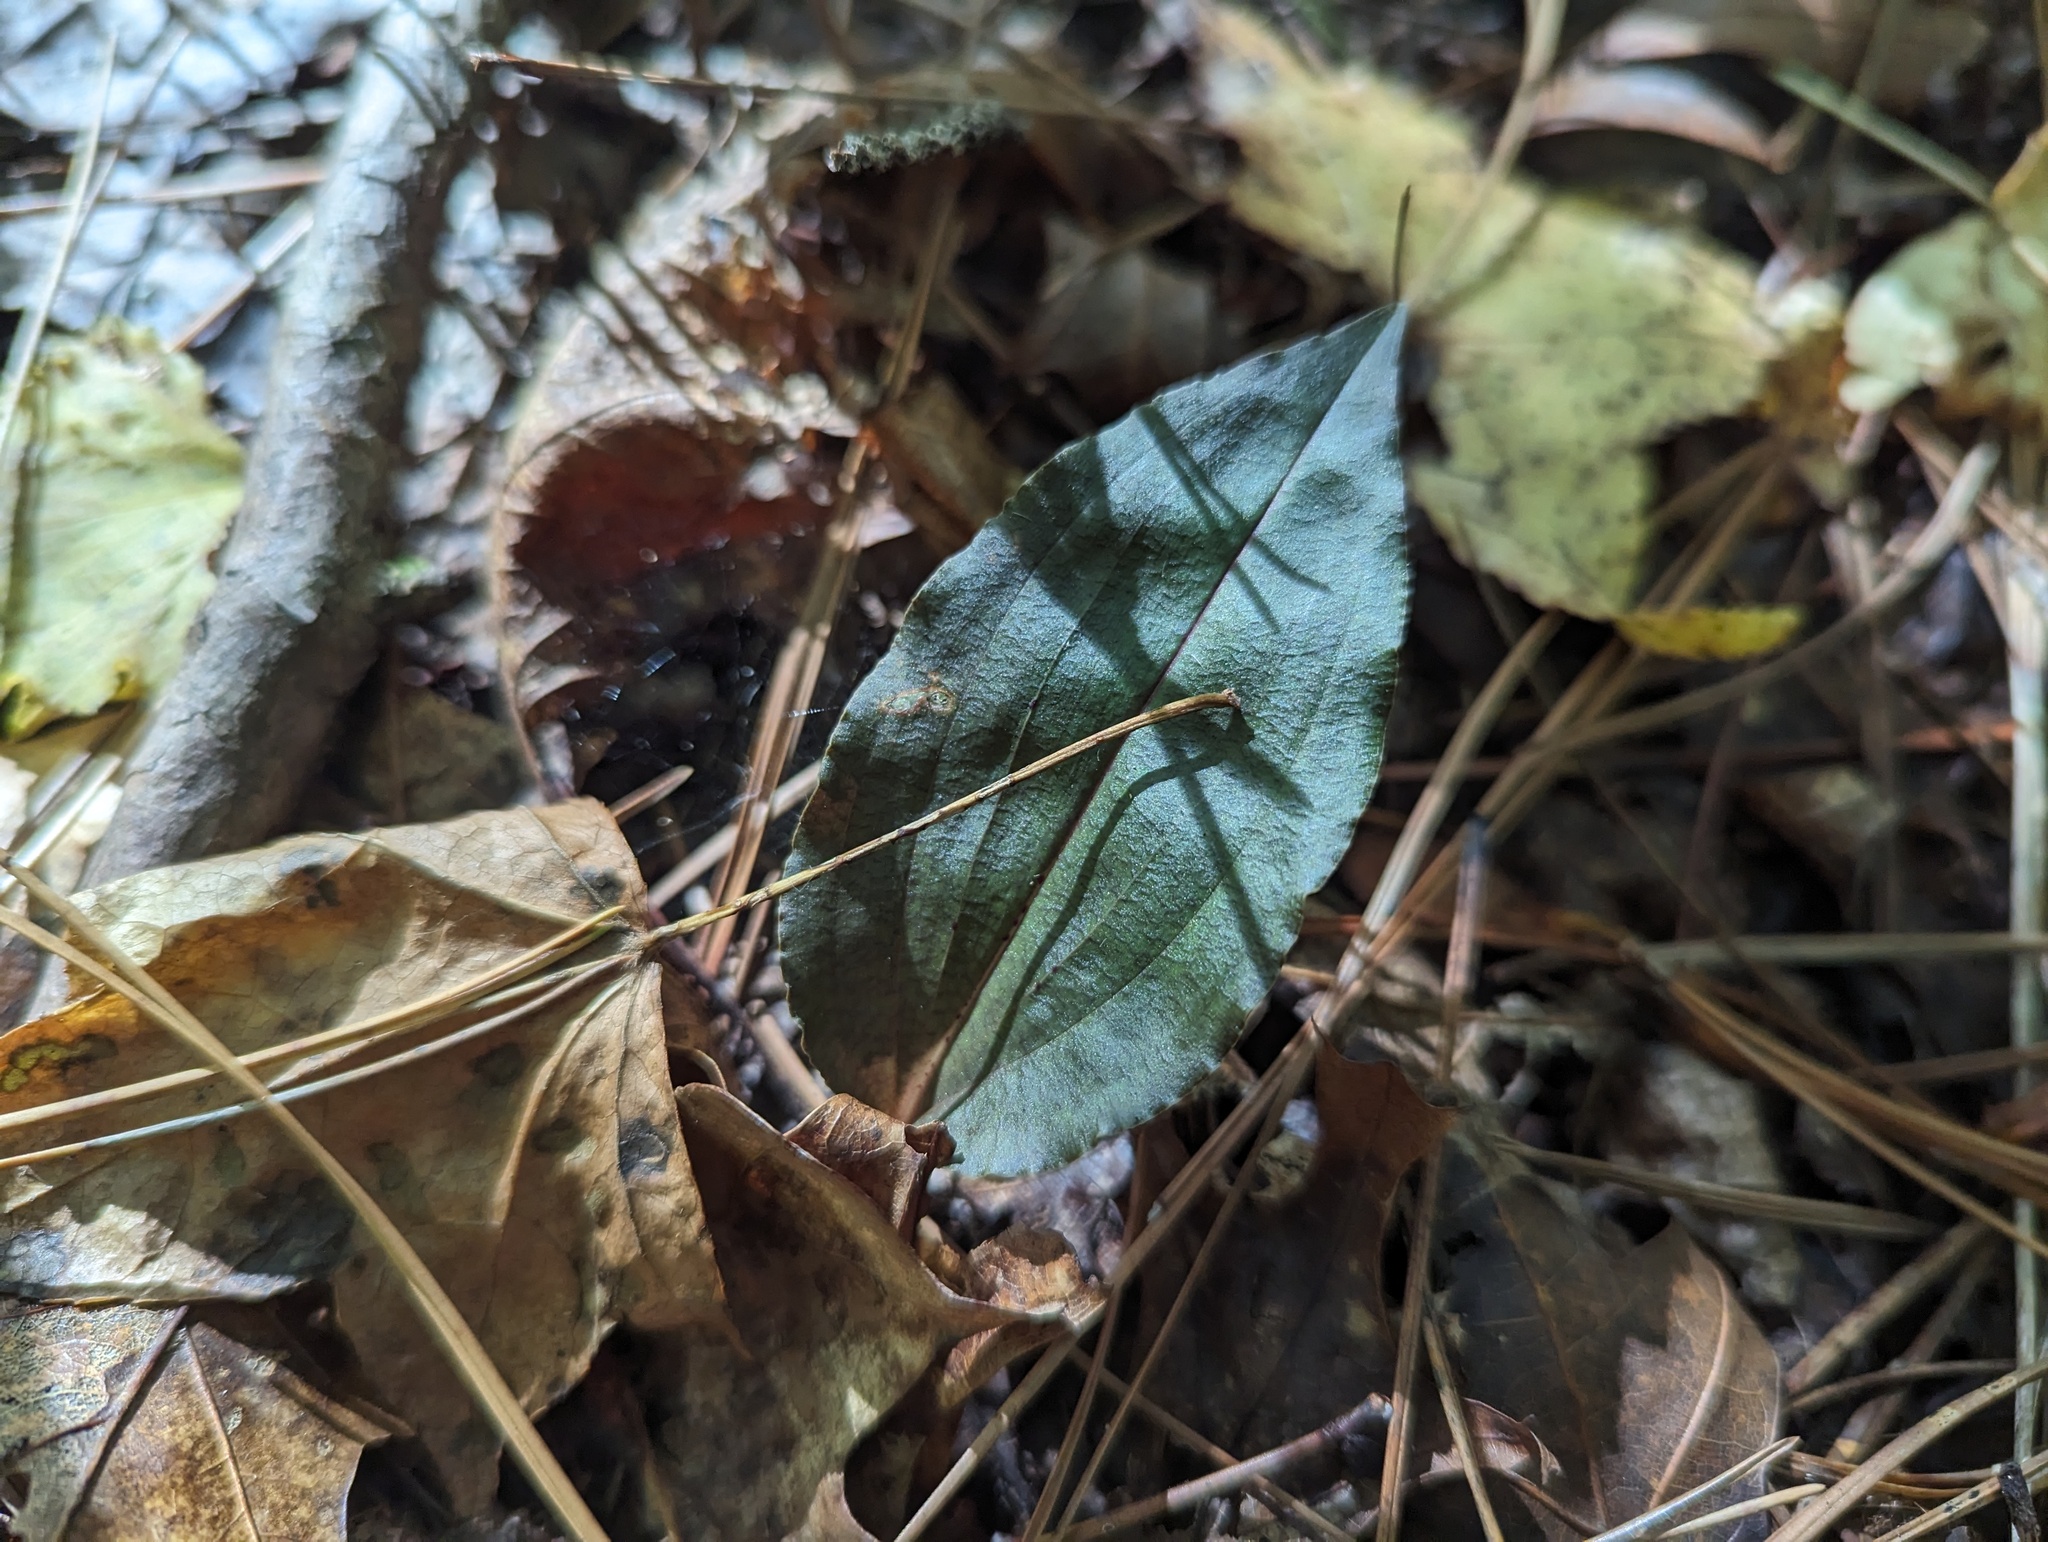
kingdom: Plantae
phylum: Tracheophyta
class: Liliopsida
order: Asparagales
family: Orchidaceae
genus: Tipularia
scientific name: Tipularia discolor
